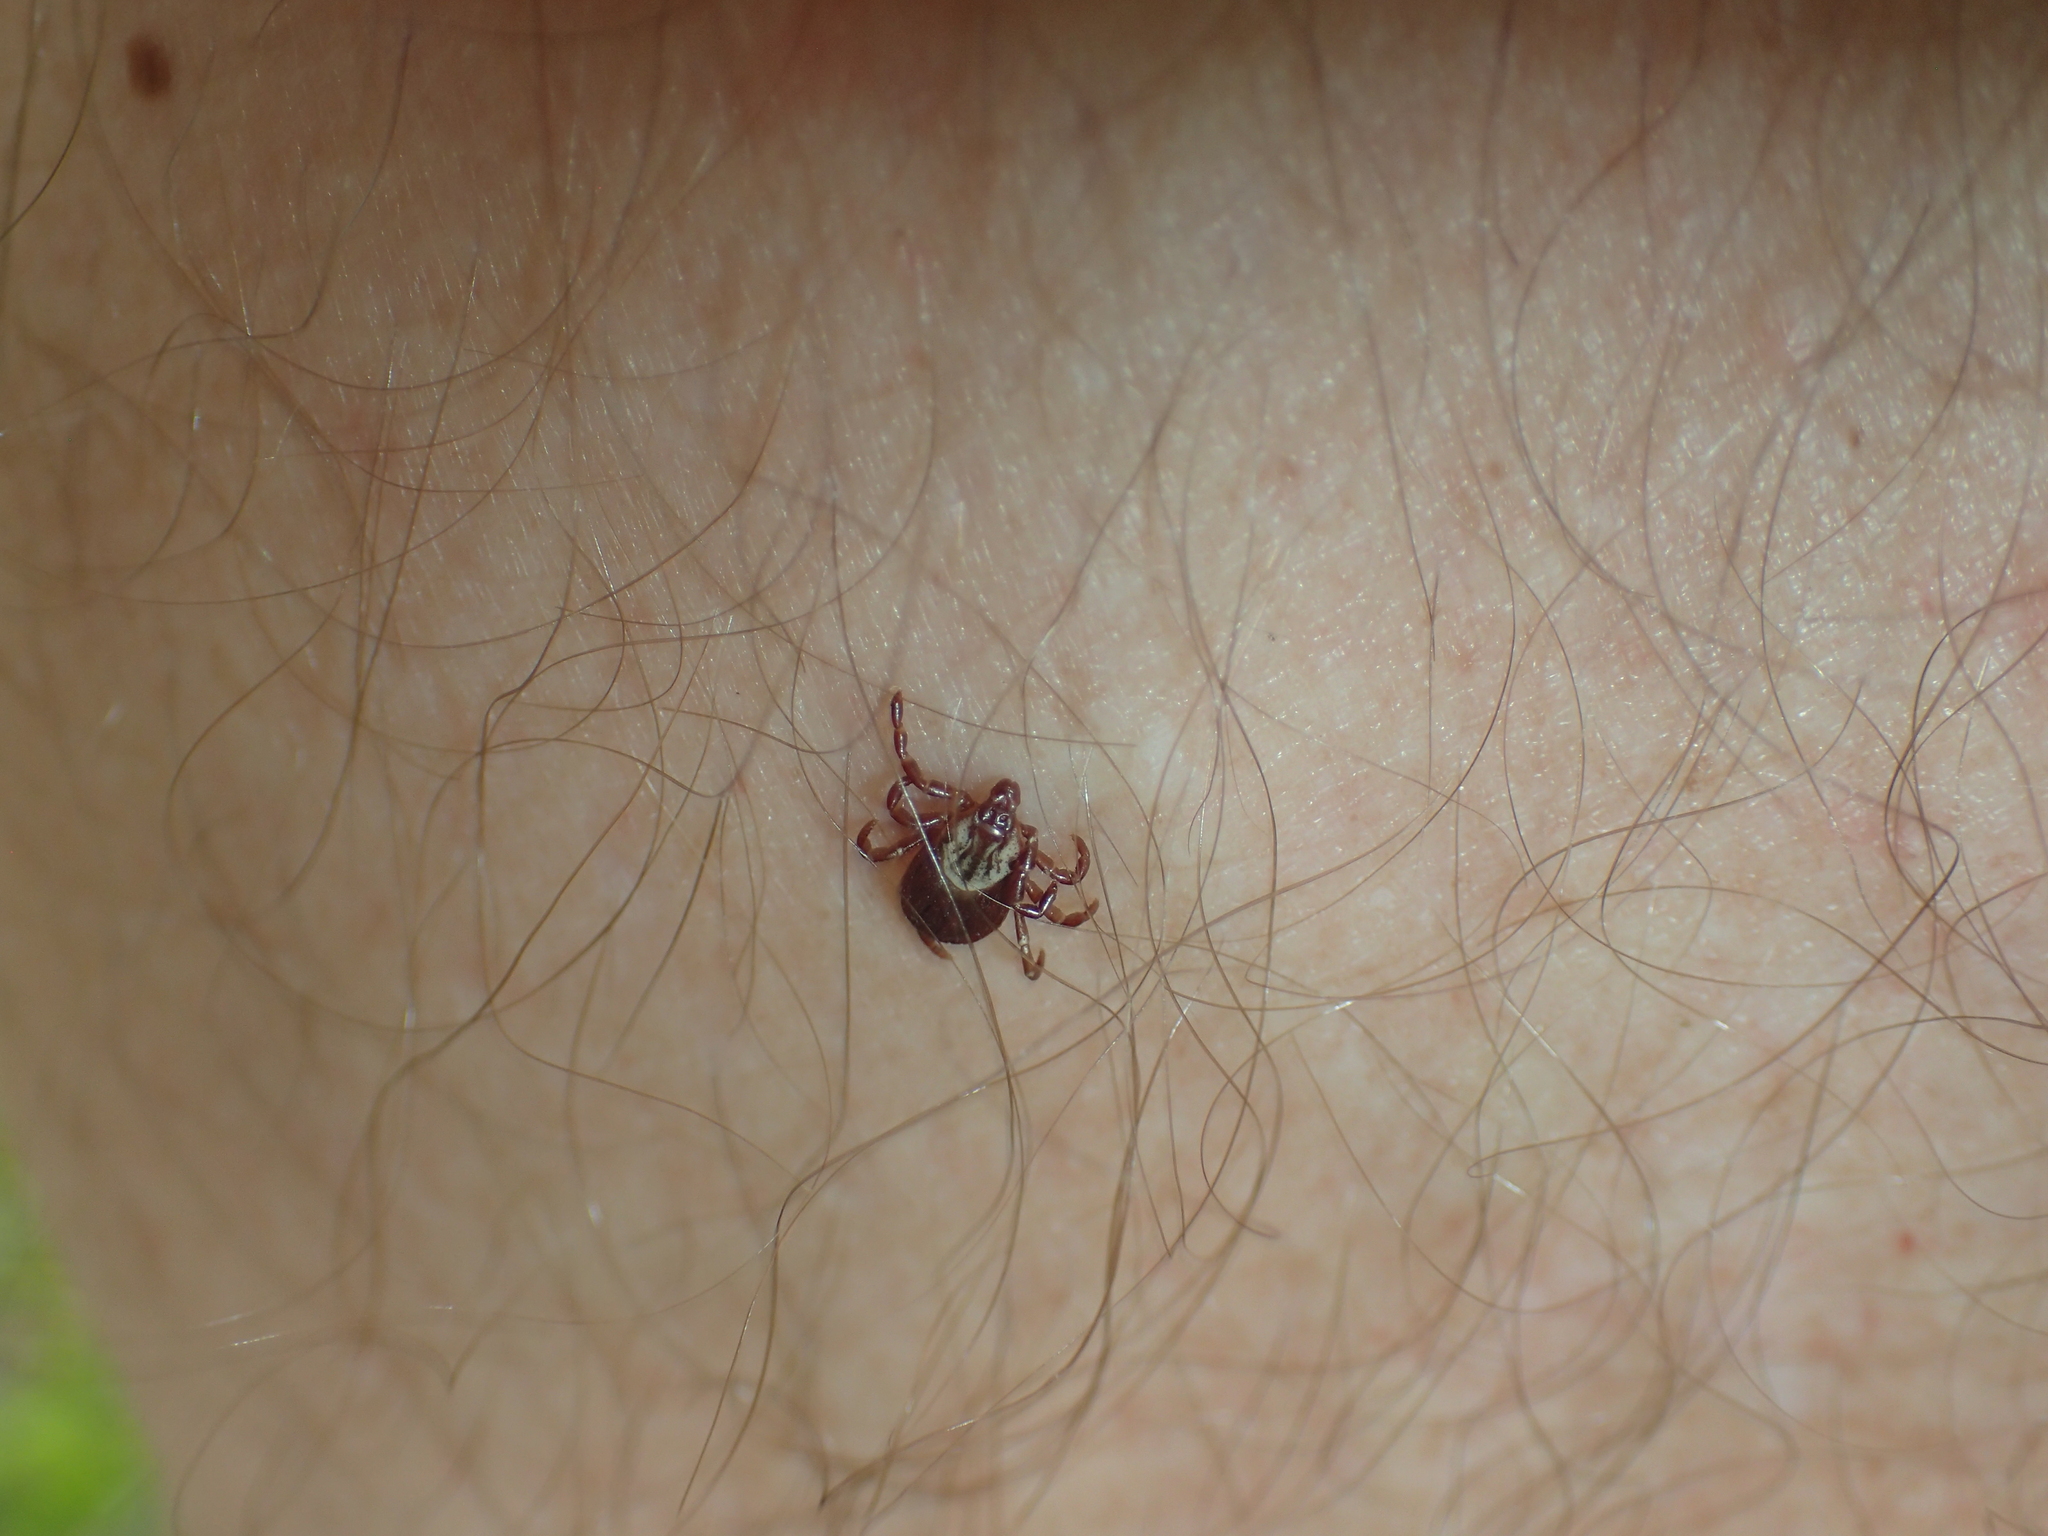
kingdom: Animalia
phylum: Arthropoda
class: Arachnida
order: Ixodida
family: Ixodidae
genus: Dermacentor
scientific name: Dermacentor variabilis
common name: American dog tick
